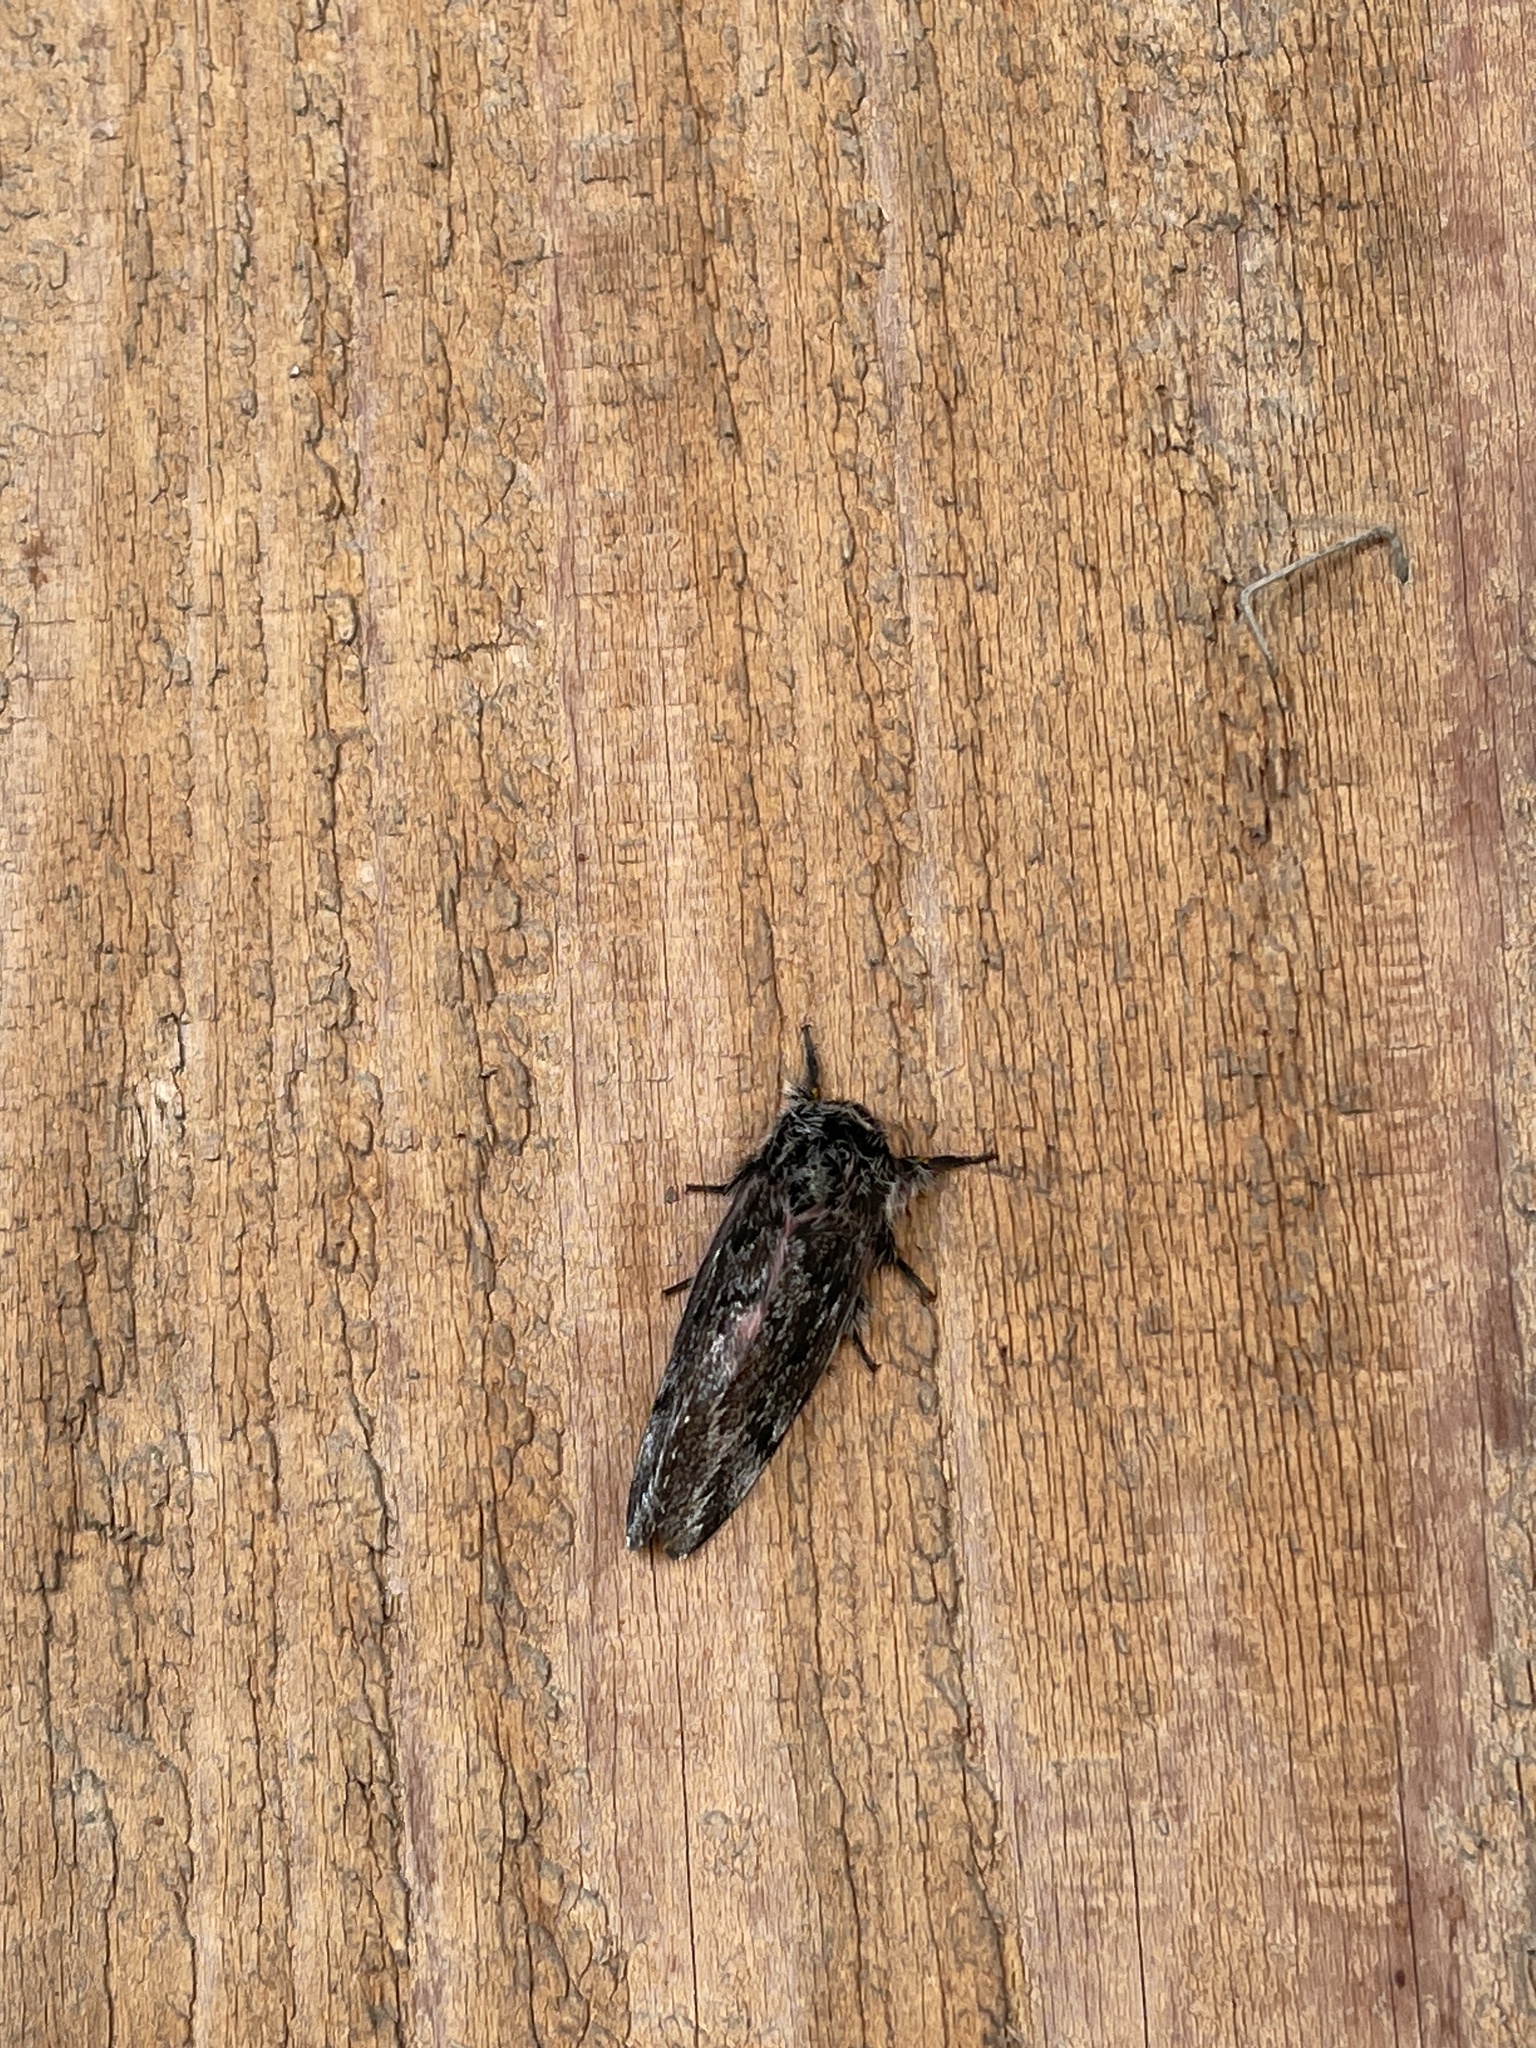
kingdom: Animalia
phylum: Arthropoda
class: Insecta
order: Lepidoptera
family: Saturniidae
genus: Coloradia
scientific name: Coloradia pandora
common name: Pandora pinemoth
